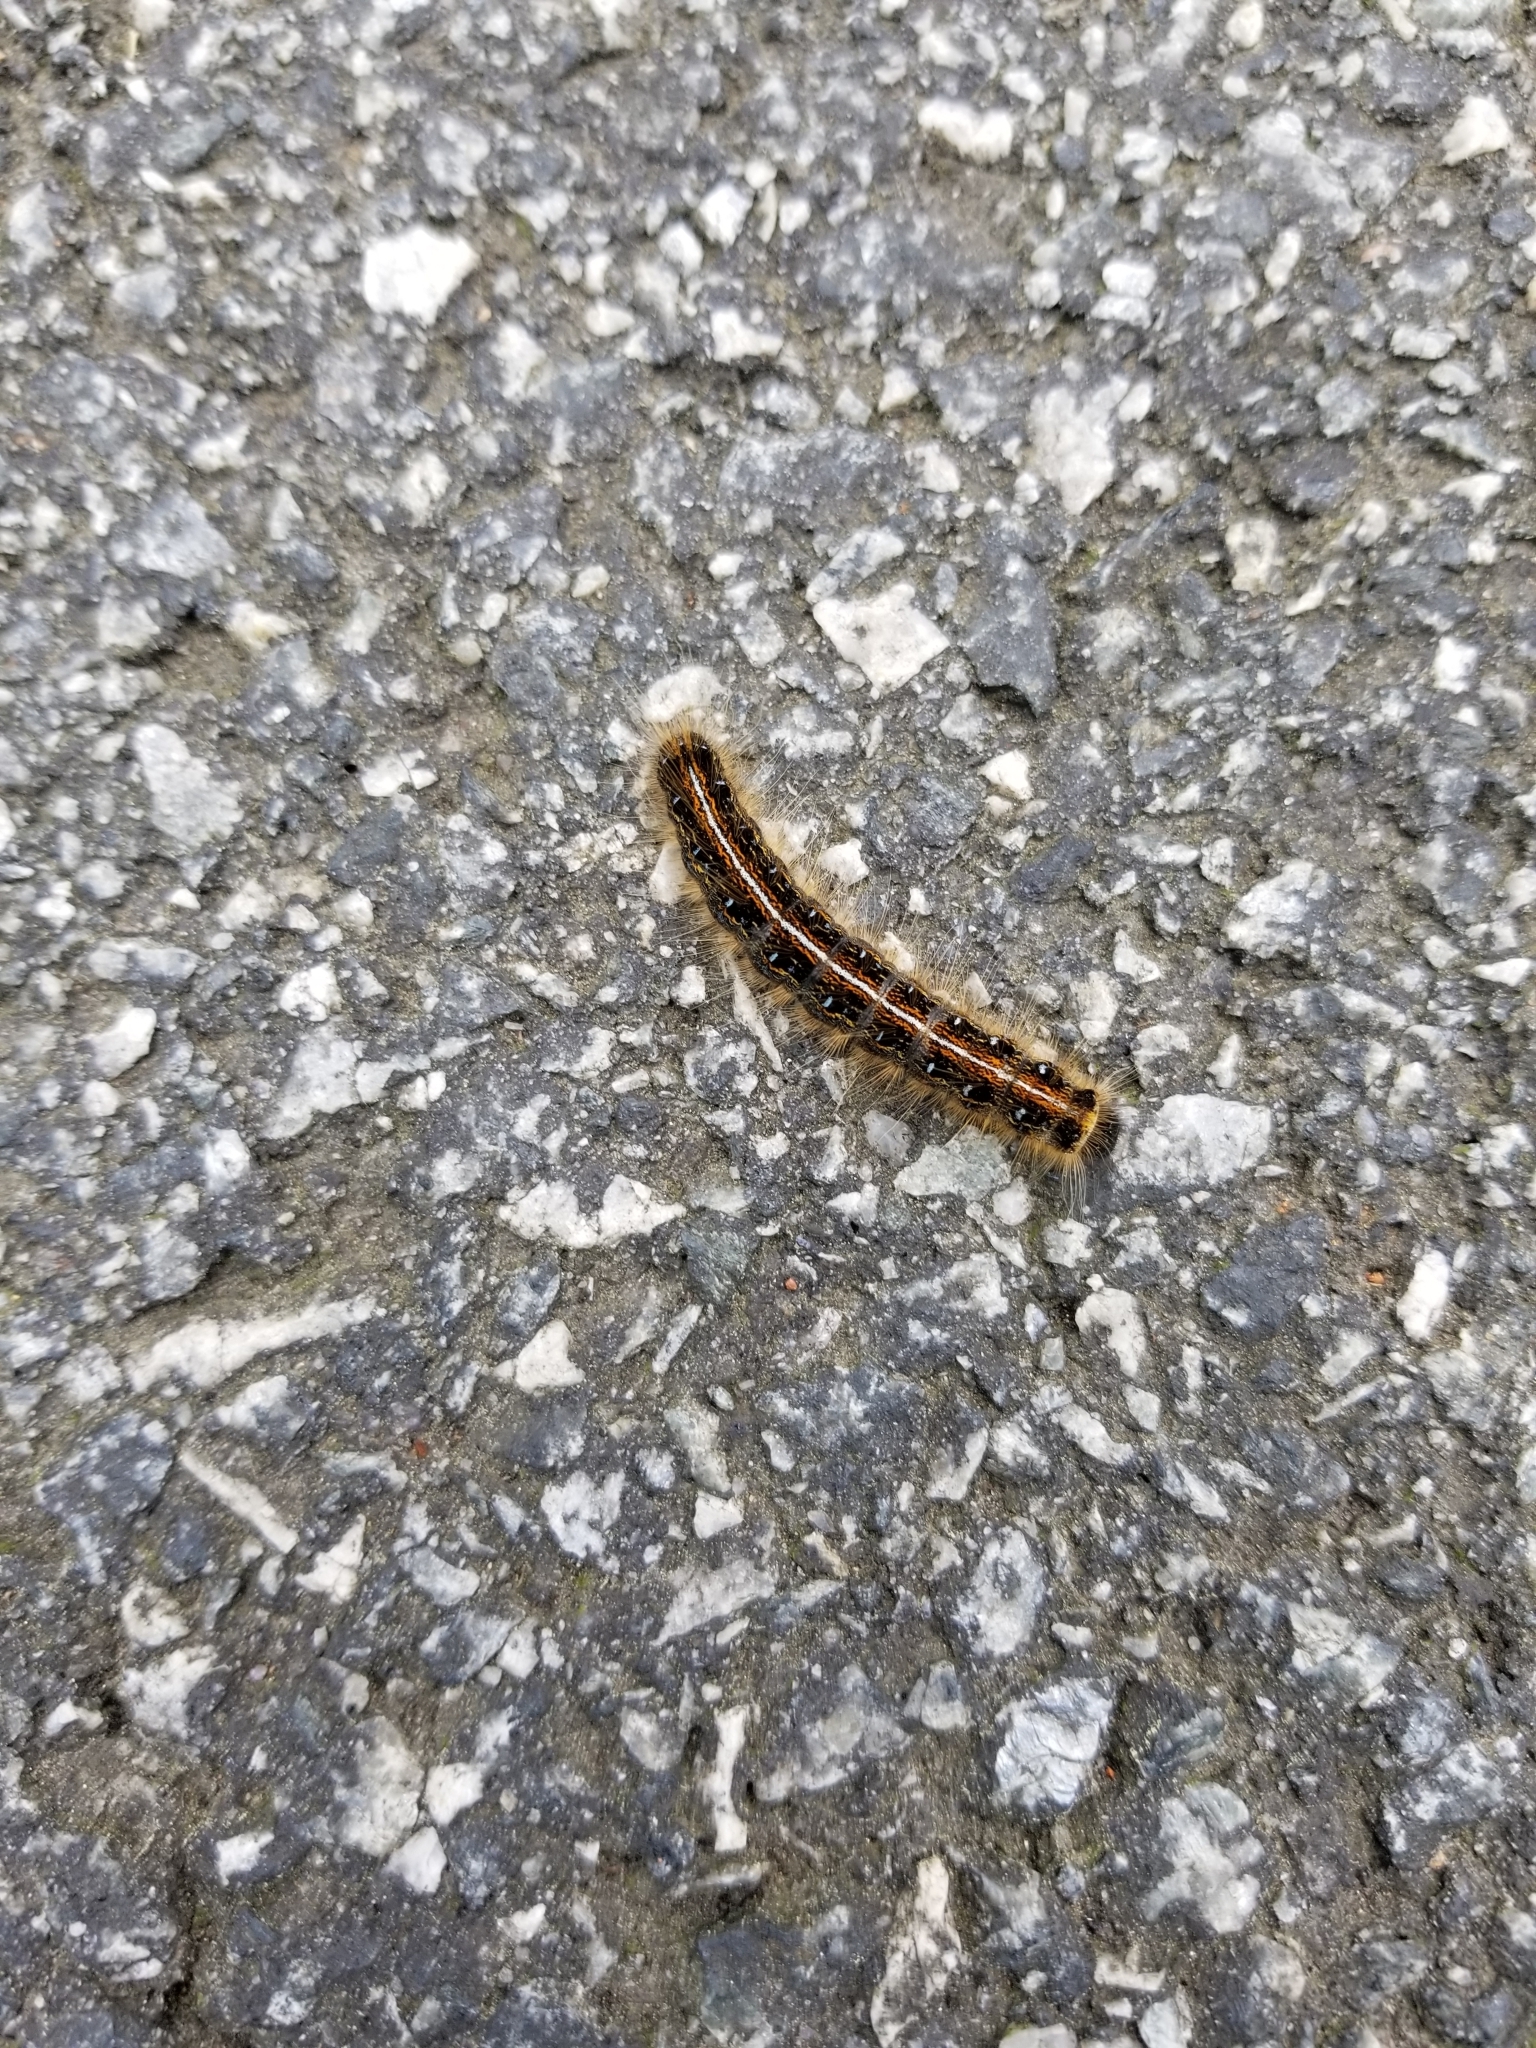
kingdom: Animalia
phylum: Arthropoda
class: Insecta
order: Lepidoptera
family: Lasiocampidae
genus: Malacosoma
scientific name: Malacosoma americana
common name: Eastern tent caterpillar moth
